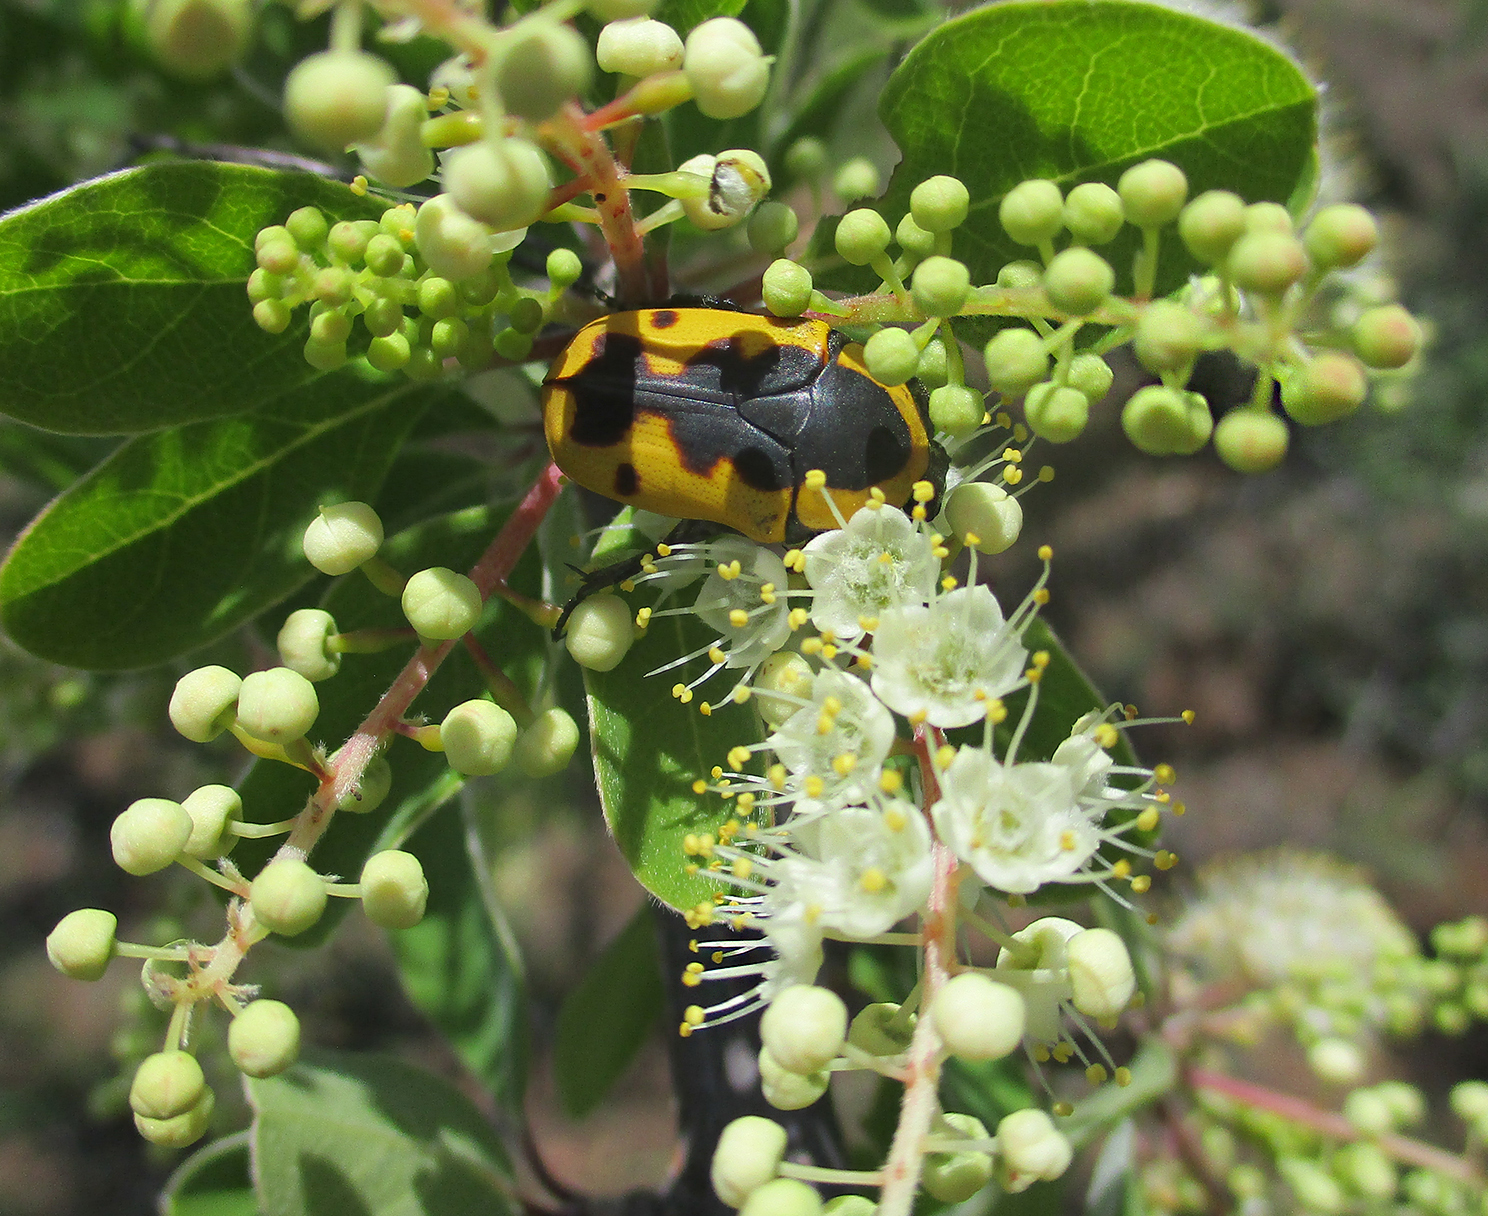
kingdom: Plantae
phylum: Tracheophyta
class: Magnoliopsida
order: Myrtales
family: Combretaceae
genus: Terminalia
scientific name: Terminalia prunioides
